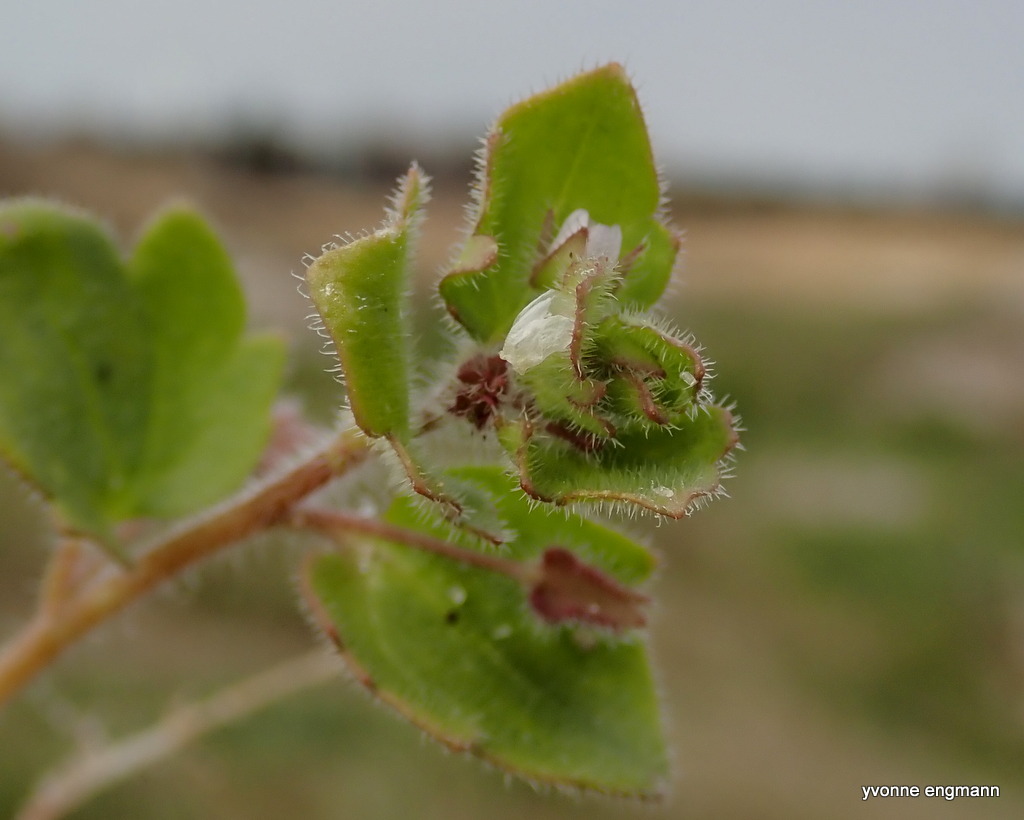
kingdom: Plantae
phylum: Tracheophyta
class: Magnoliopsida
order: Lamiales
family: Plantaginaceae
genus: Veronica
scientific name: Veronica hederifolia
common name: Ivy-leaved speedwell
